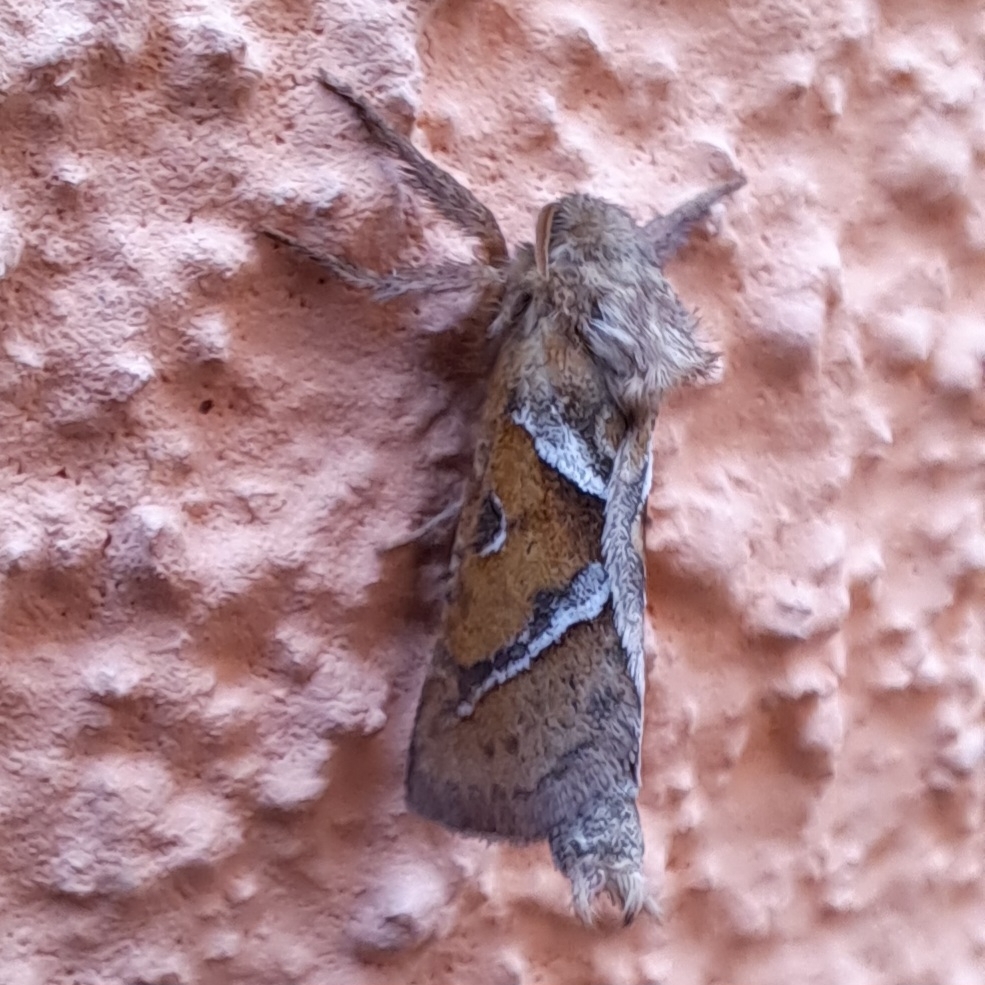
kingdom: Animalia
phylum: Arthropoda
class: Insecta
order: Lepidoptera
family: Hepialidae
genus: Triodia
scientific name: Triodia sylvina
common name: Orange swift
